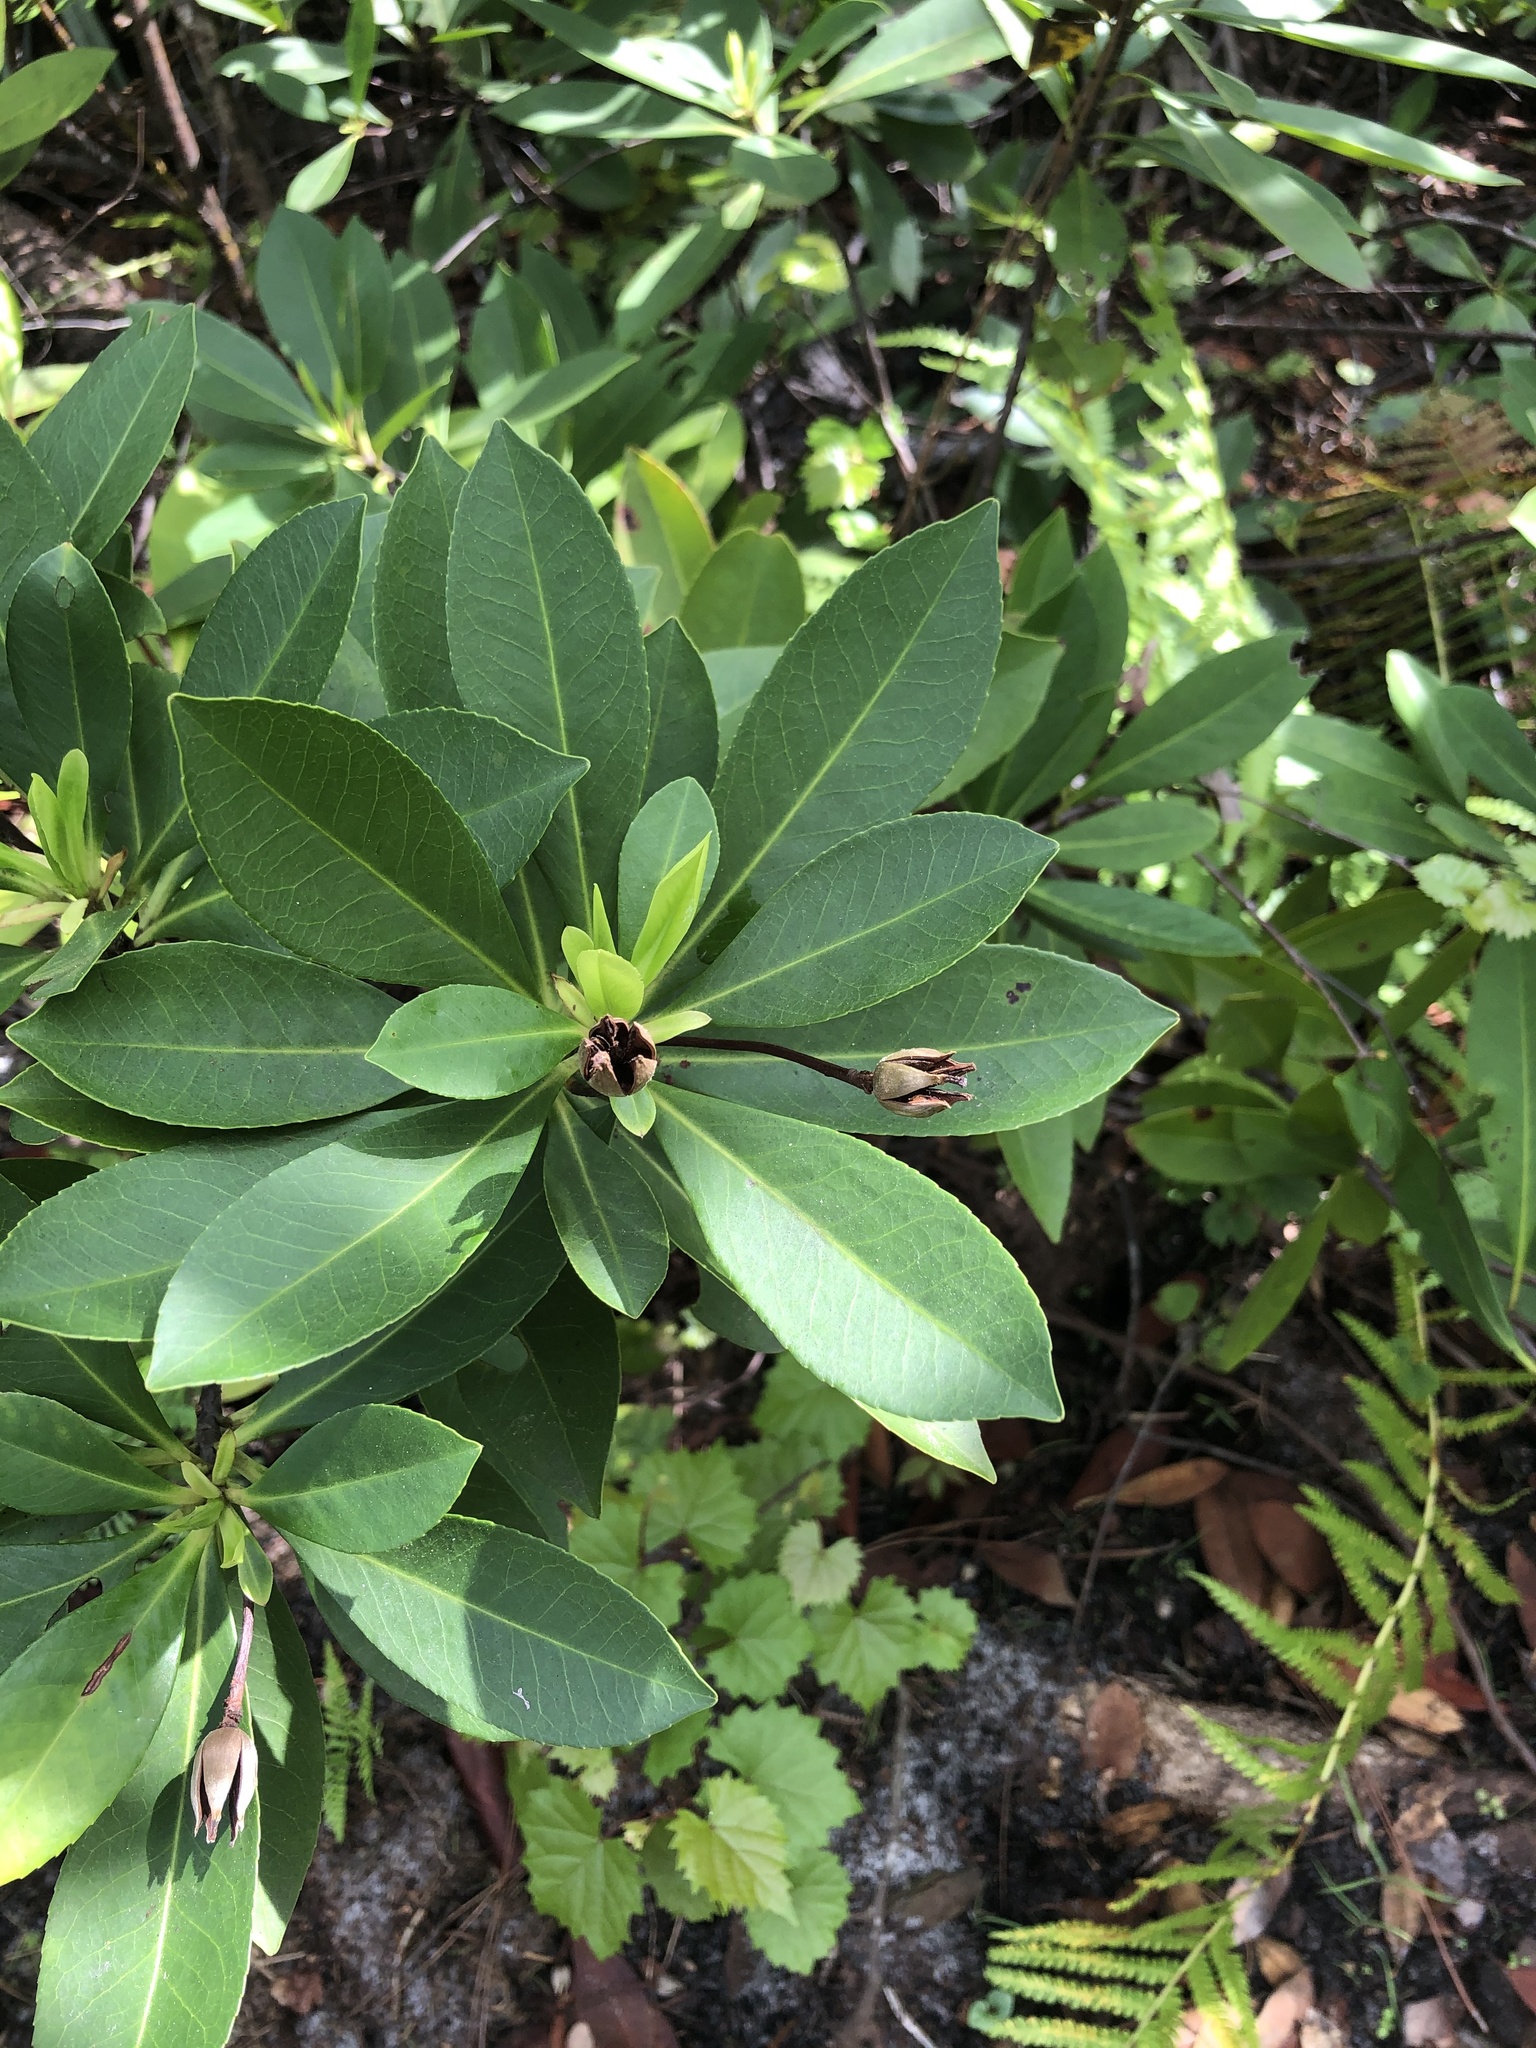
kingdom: Plantae
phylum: Tracheophyta
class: Magnoliopsida
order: Ericales
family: Theaceae
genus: Gordonia
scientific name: Gordonia lasianthus
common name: Loblolly bay
